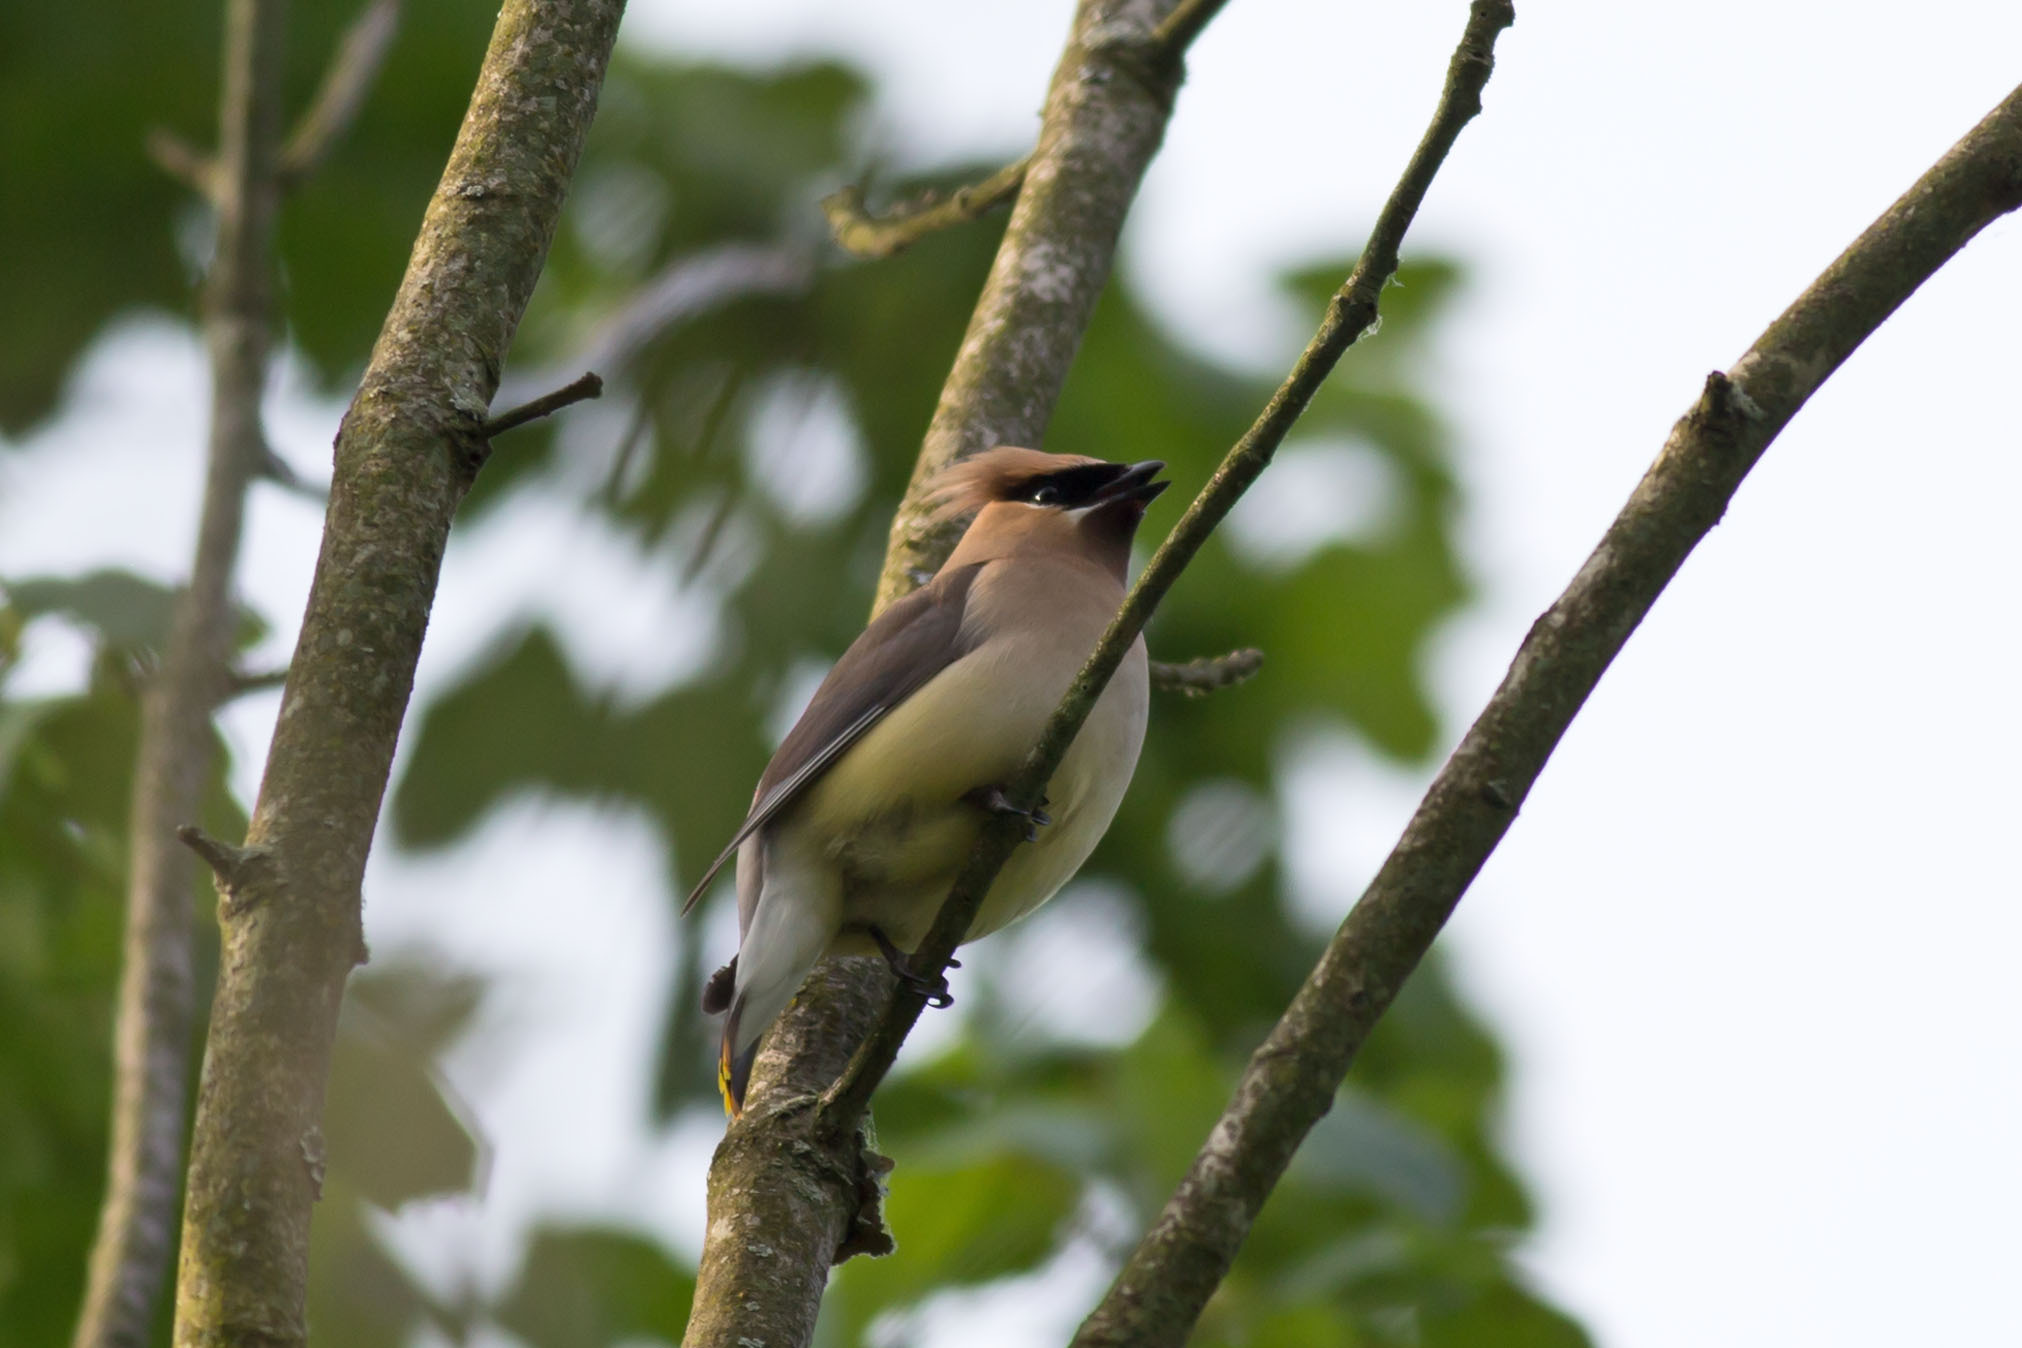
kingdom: Animalia
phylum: Chordata
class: Aves
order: Passeriformes
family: Bombycillidae
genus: Bombycilla
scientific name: Bombycilla cedrorum
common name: Cedar waxwing
